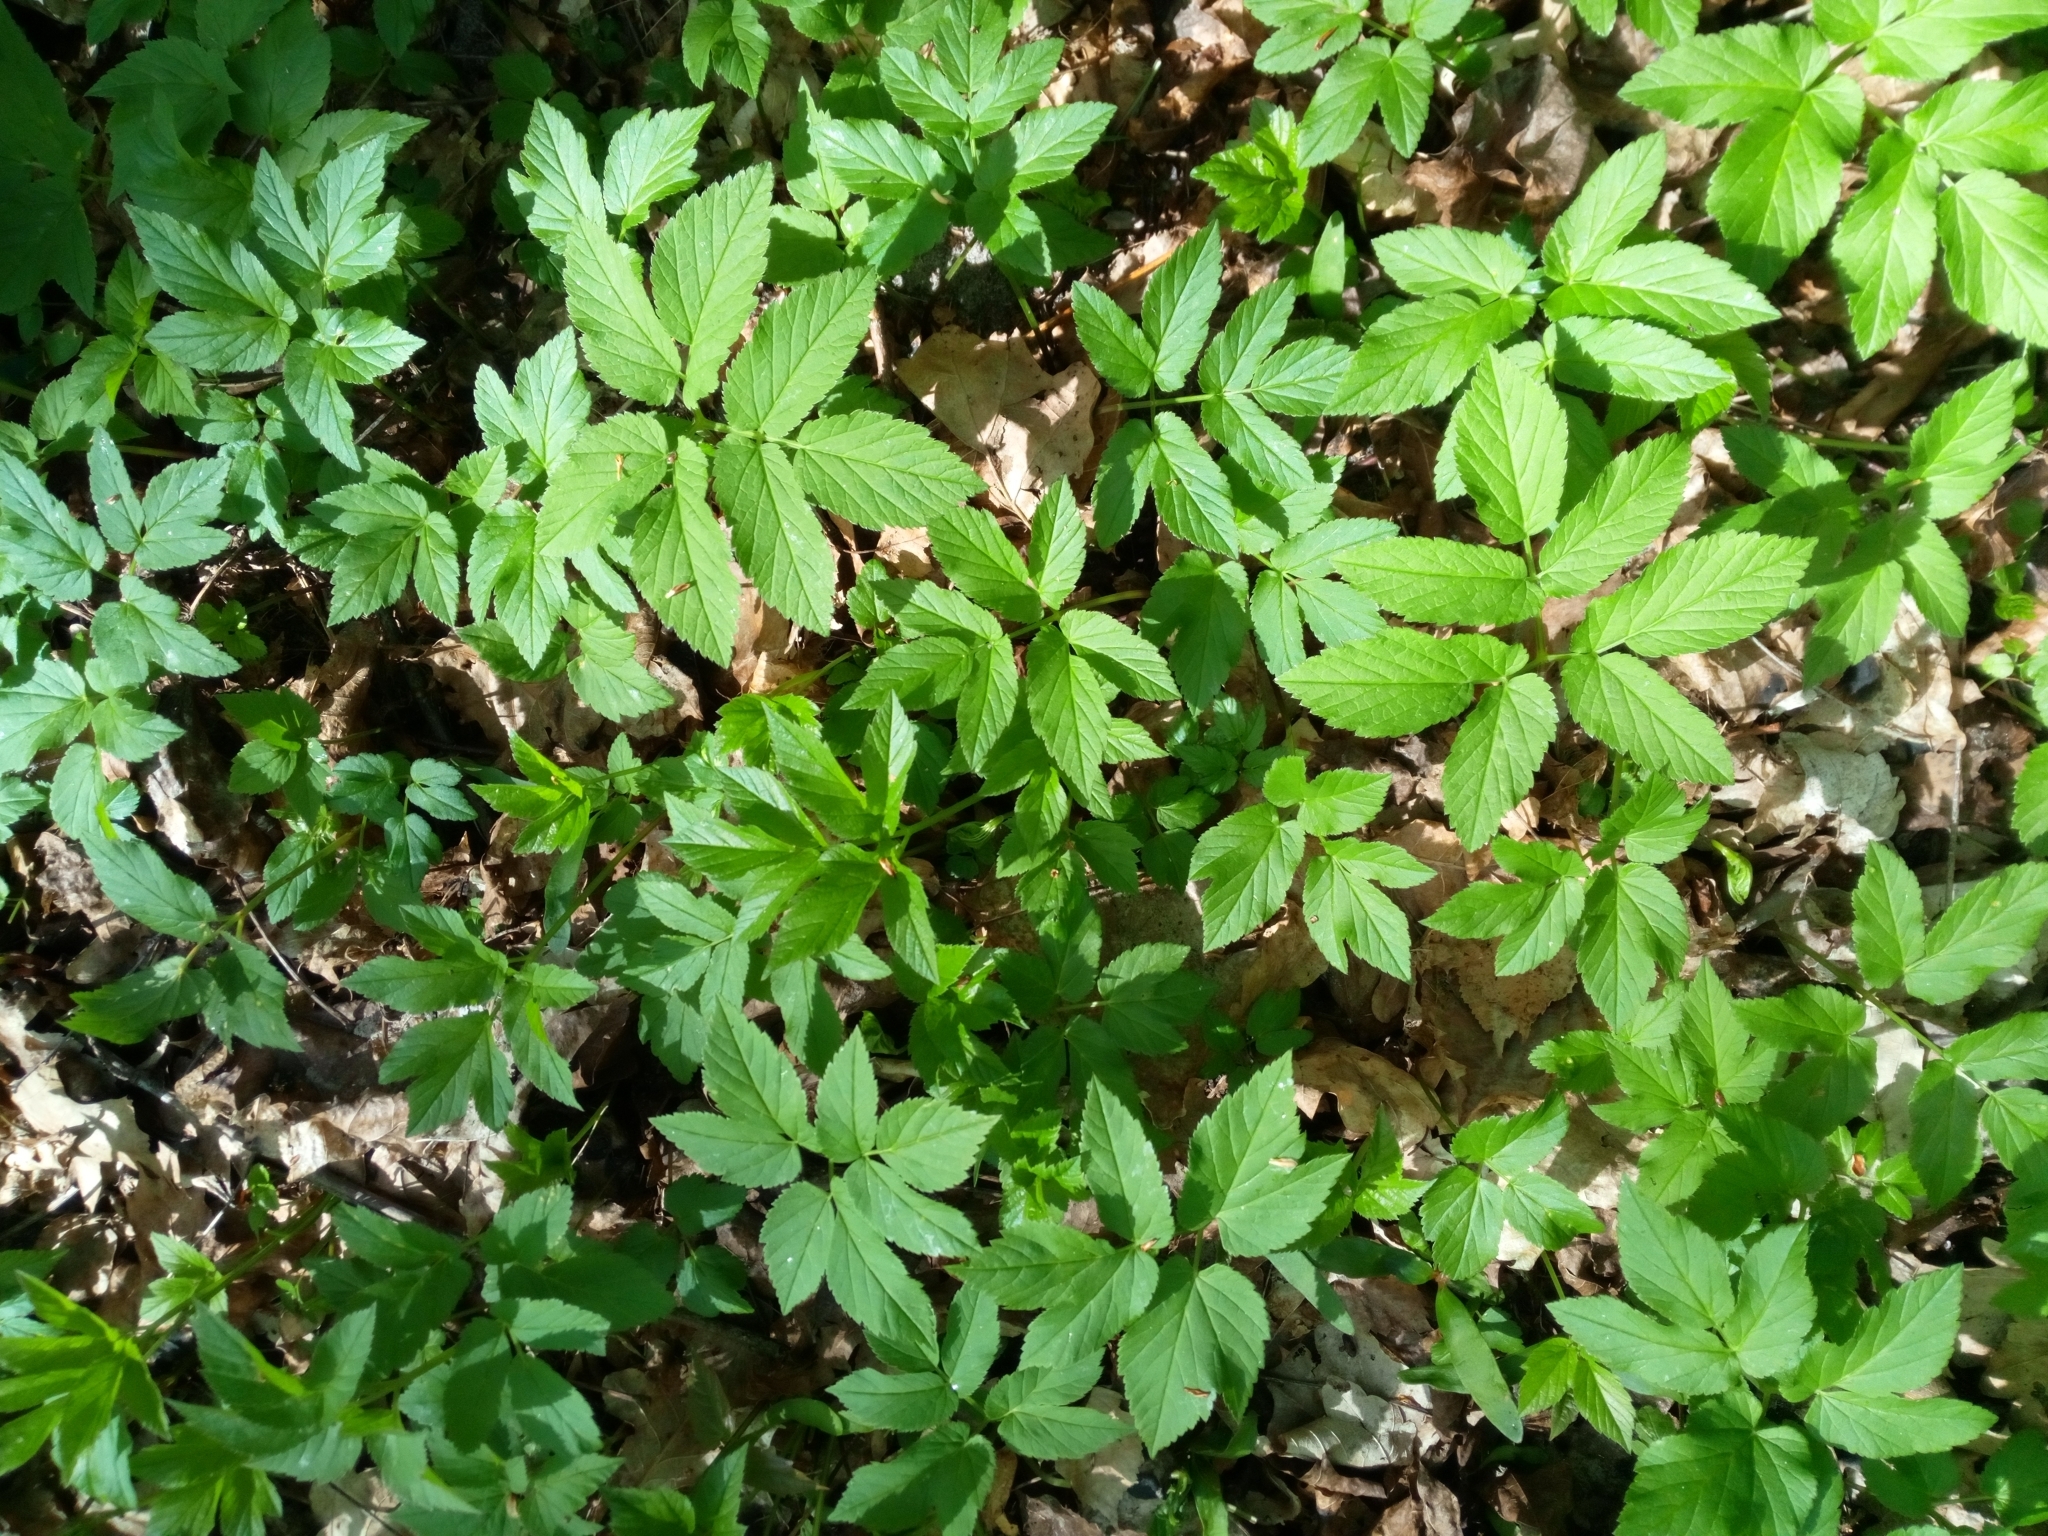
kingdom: Plantae
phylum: Tracheophyta
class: Magnoliopsida
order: Apiales
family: Apiaceae
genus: Aegopodium
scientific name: Aegopodium podagraria
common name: Ground-elder
